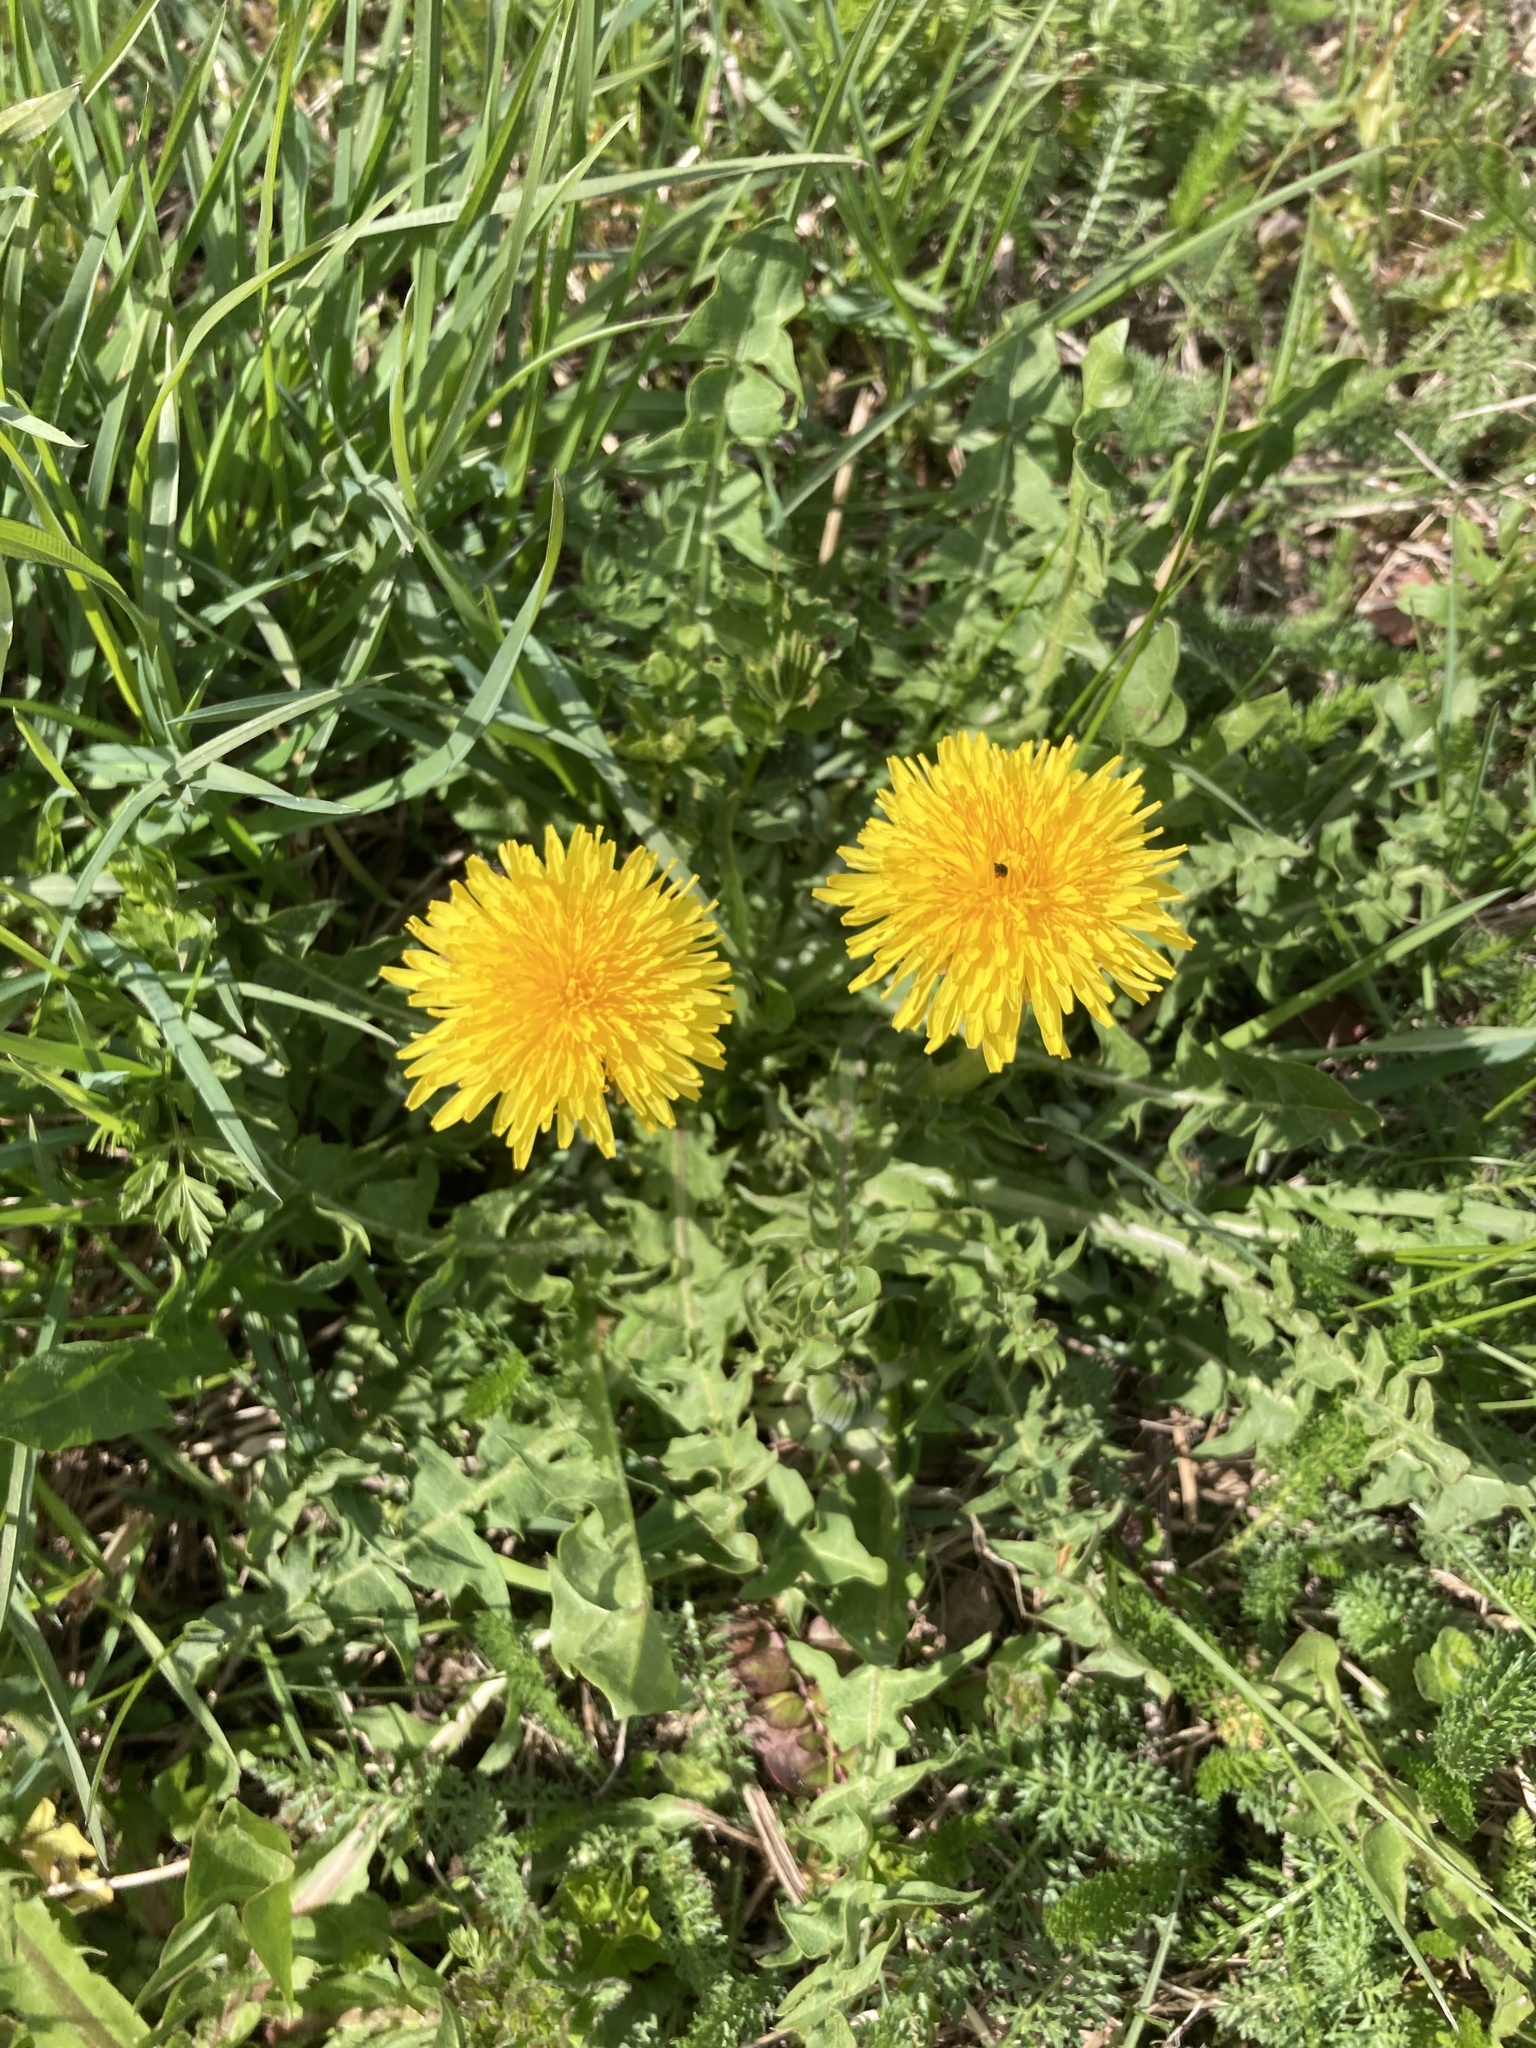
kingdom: Plantae
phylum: Tracheophyta
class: Magnoliopsida
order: Asterales
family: Asteraceae
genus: Taraxacum
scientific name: Taraxacum officinale
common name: Common dandelion
